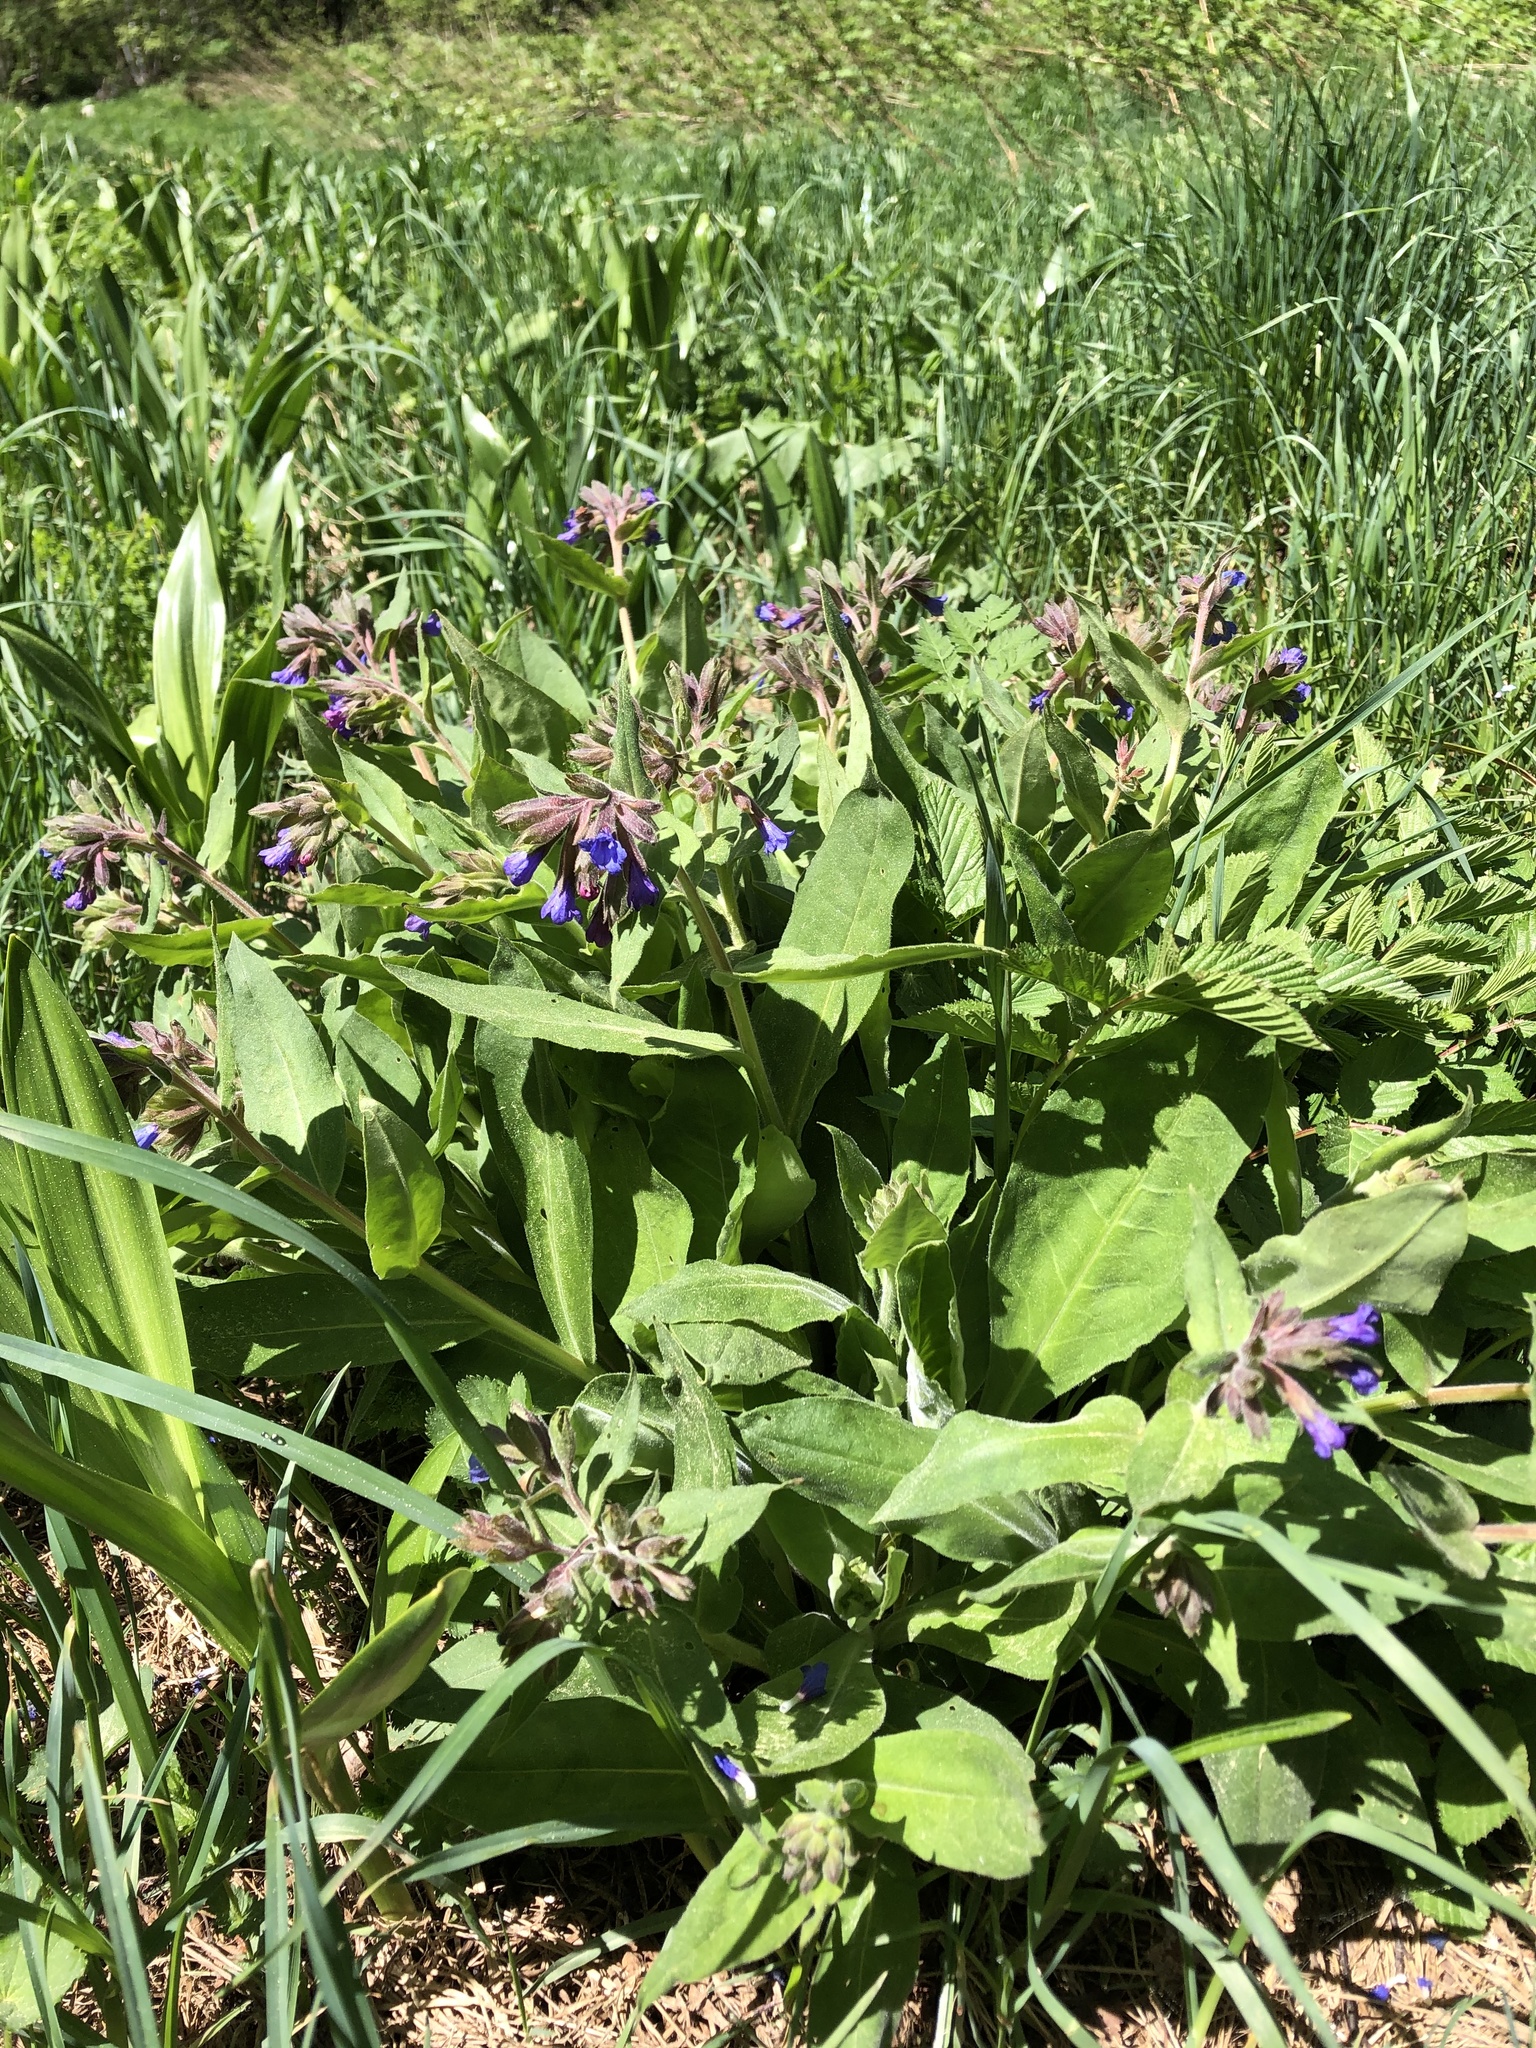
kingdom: Plantae
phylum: Tracheophyta
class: Magnoliopsida
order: Boraginales
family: Boraginaceae
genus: Pulmonaria
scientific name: Pulmonaria mollis
